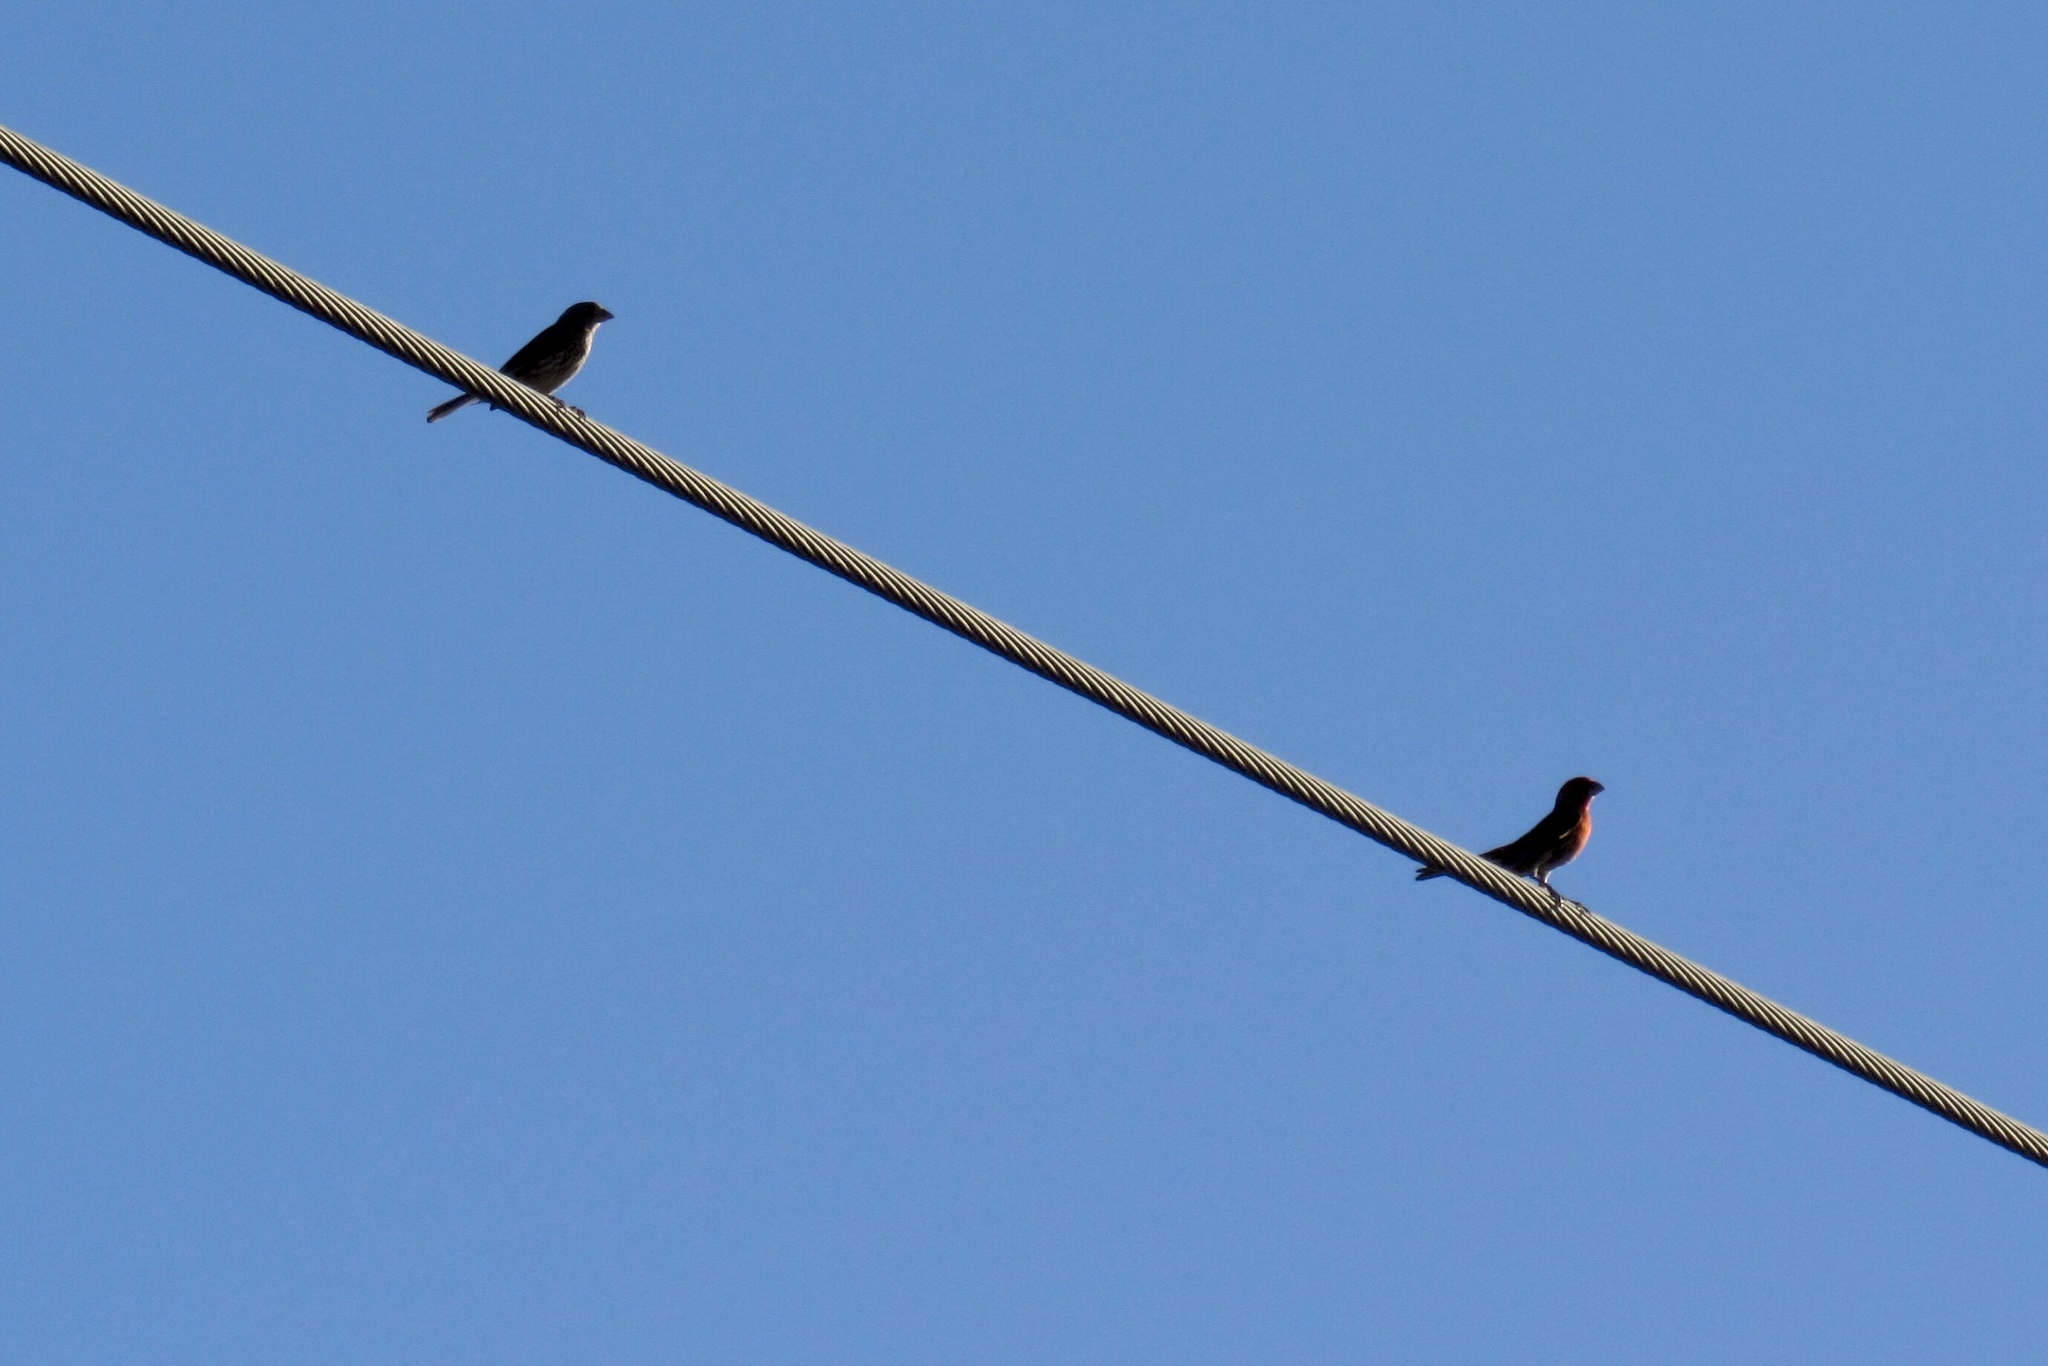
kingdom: Animalia
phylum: Chordata
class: Aves
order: Passeriformes
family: Fringillidae
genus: Haemorhous
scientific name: Haemorhous mexicanus
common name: House finch
